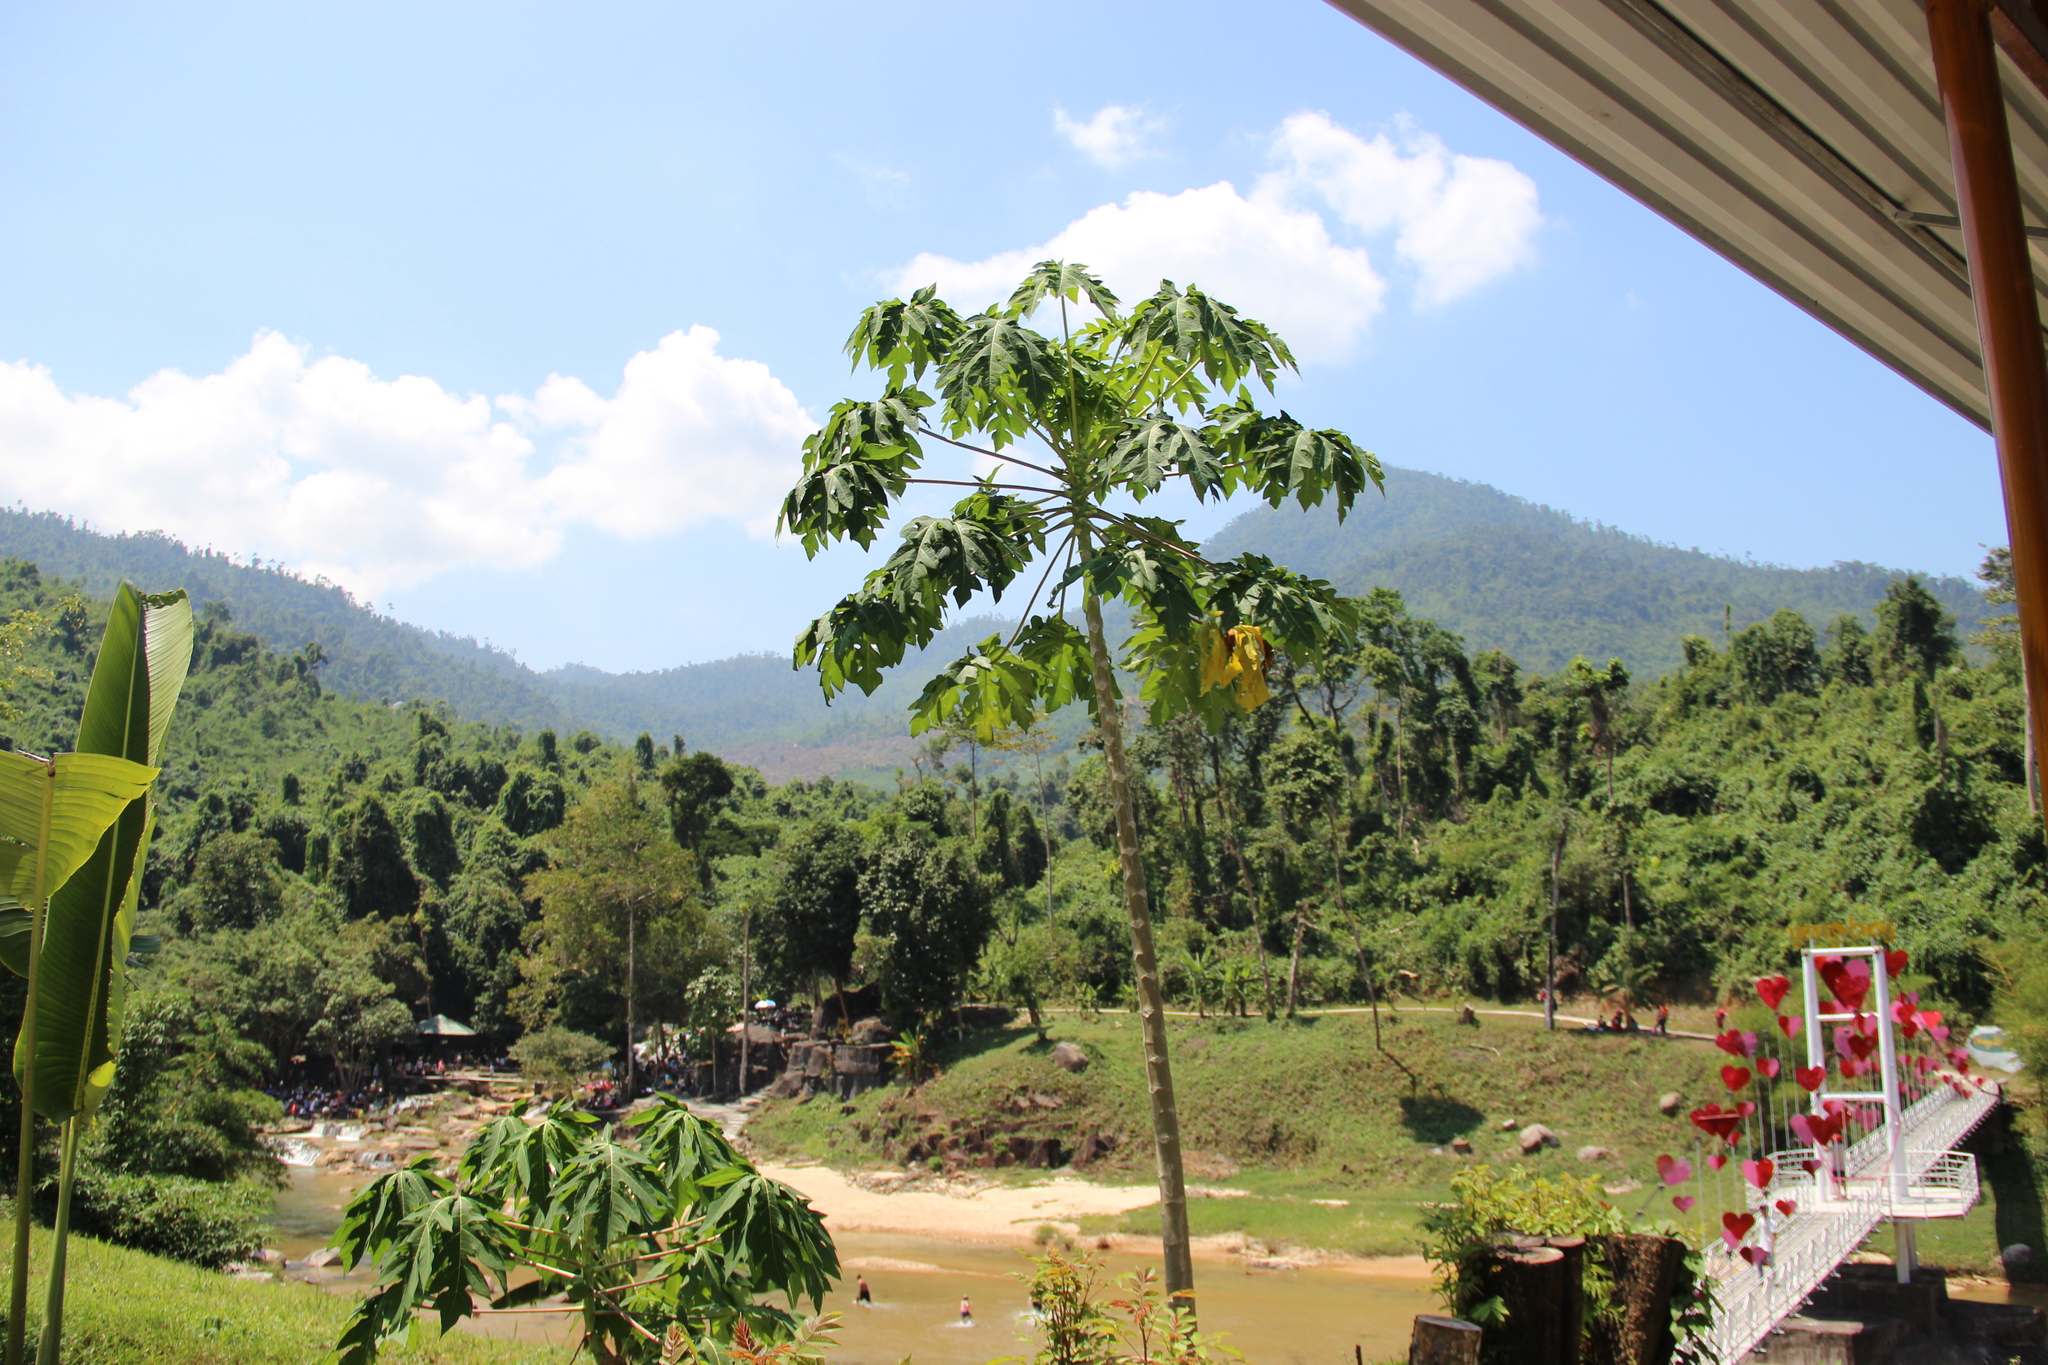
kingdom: Plantae
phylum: Tracheophyta
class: Magnoliopsida
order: Brassicales
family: Caricaceae
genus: Carica
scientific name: Carica papaya
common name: Papaya
